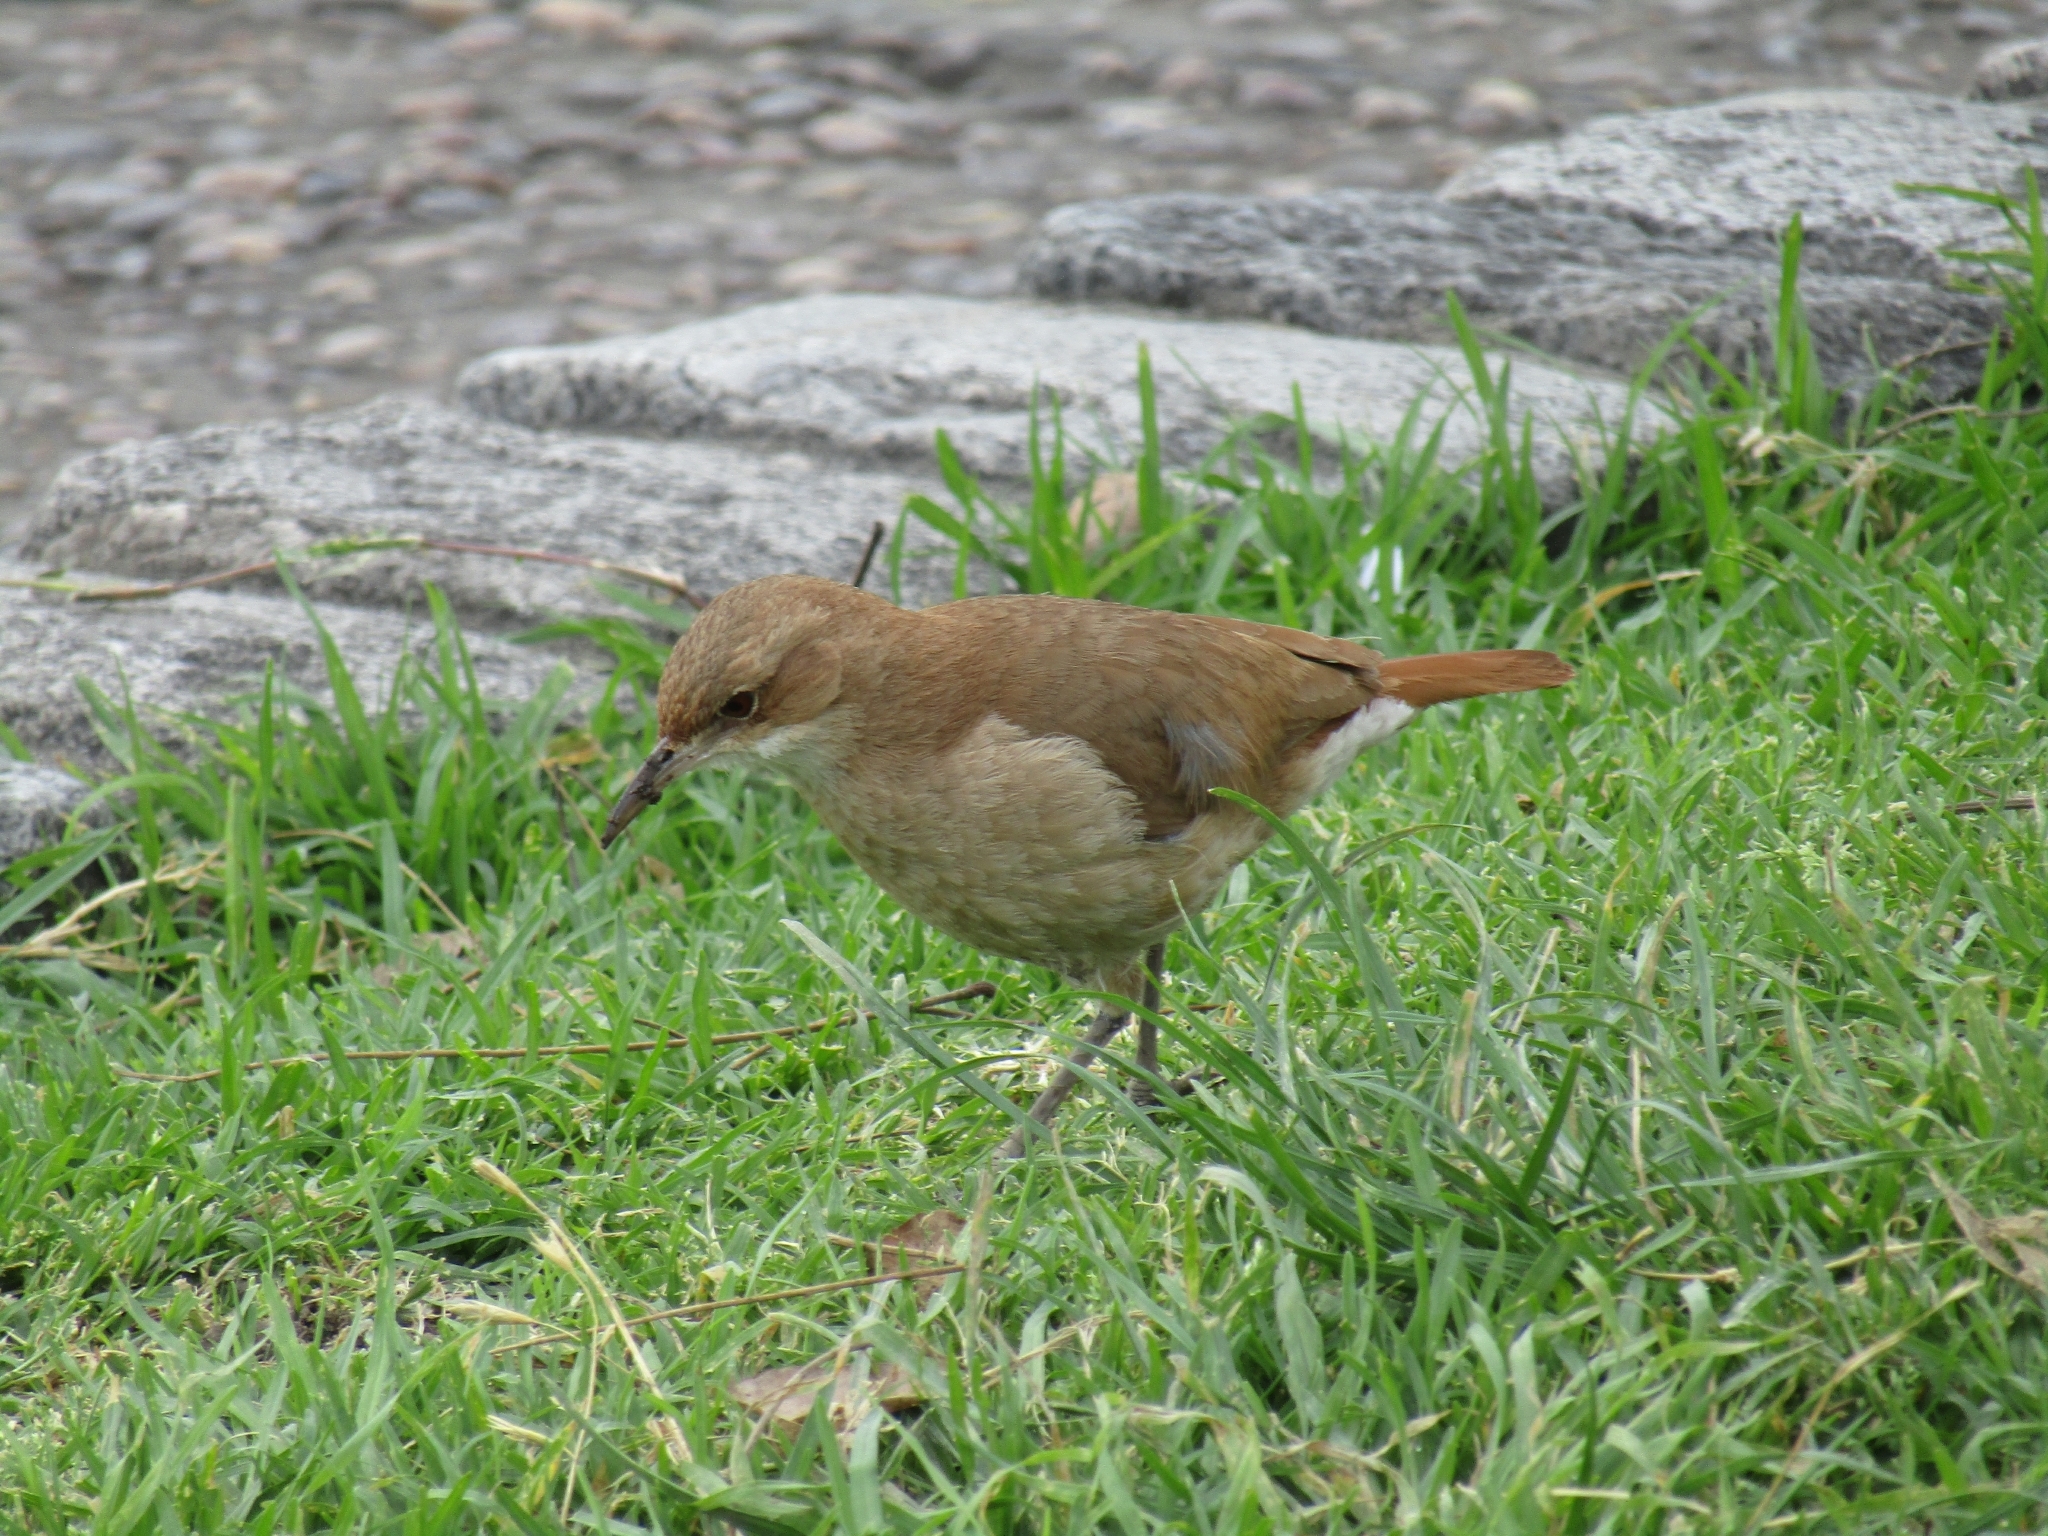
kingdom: Animalia
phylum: Chordata
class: Aves
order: Passeriformes
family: Furnariidae
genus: Furnarius
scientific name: Furnarius rufus
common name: Rufous hornero
